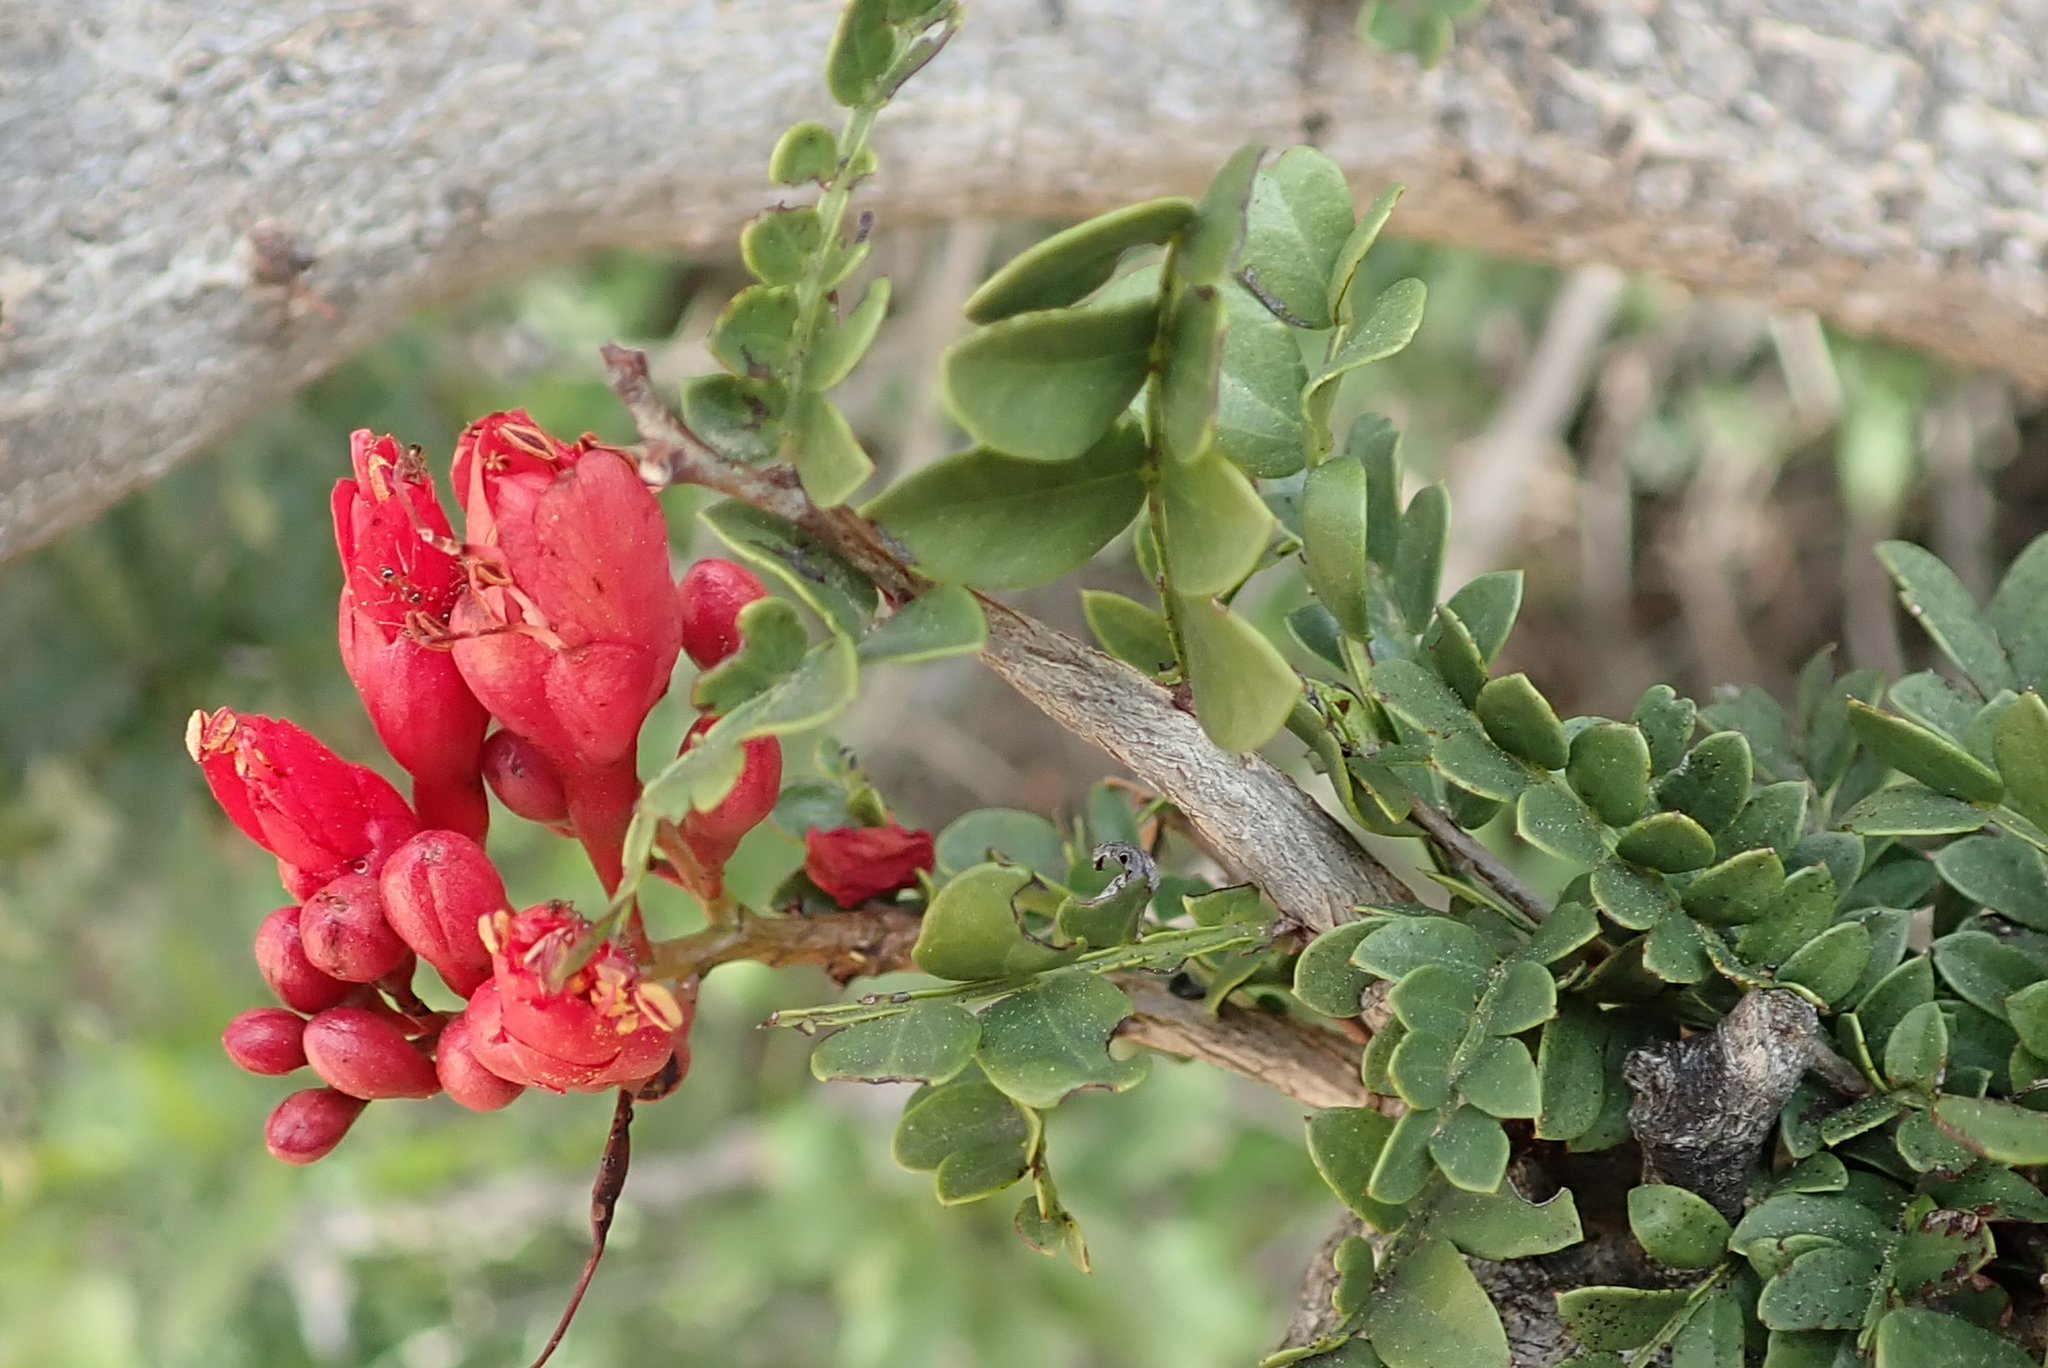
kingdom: Plantae
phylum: Tracheophyta
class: Magnoliopsida
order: Fabales
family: Fabaceae
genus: Schotia
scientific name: Schotia afra
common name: Hottentot's bean
